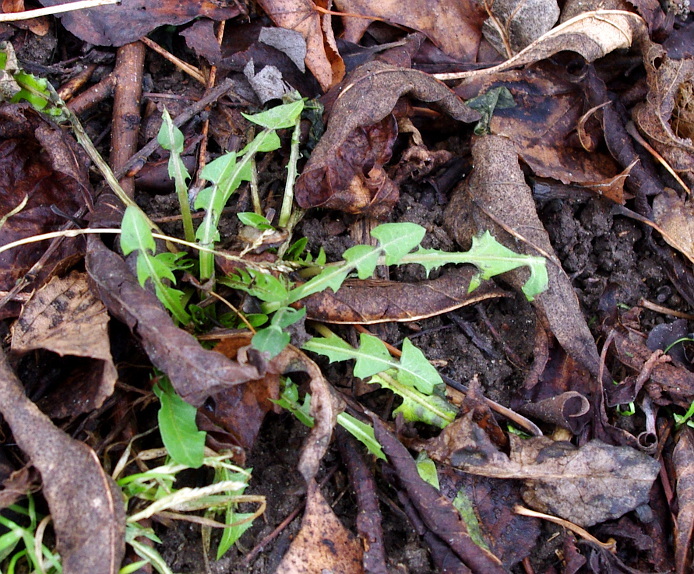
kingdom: Plantae
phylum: Tracheophyta
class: Magnoliopsida
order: Asterales
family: Asteraceae
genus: Taraxacum
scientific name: Taraxacum officinale
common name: Common dandelion
